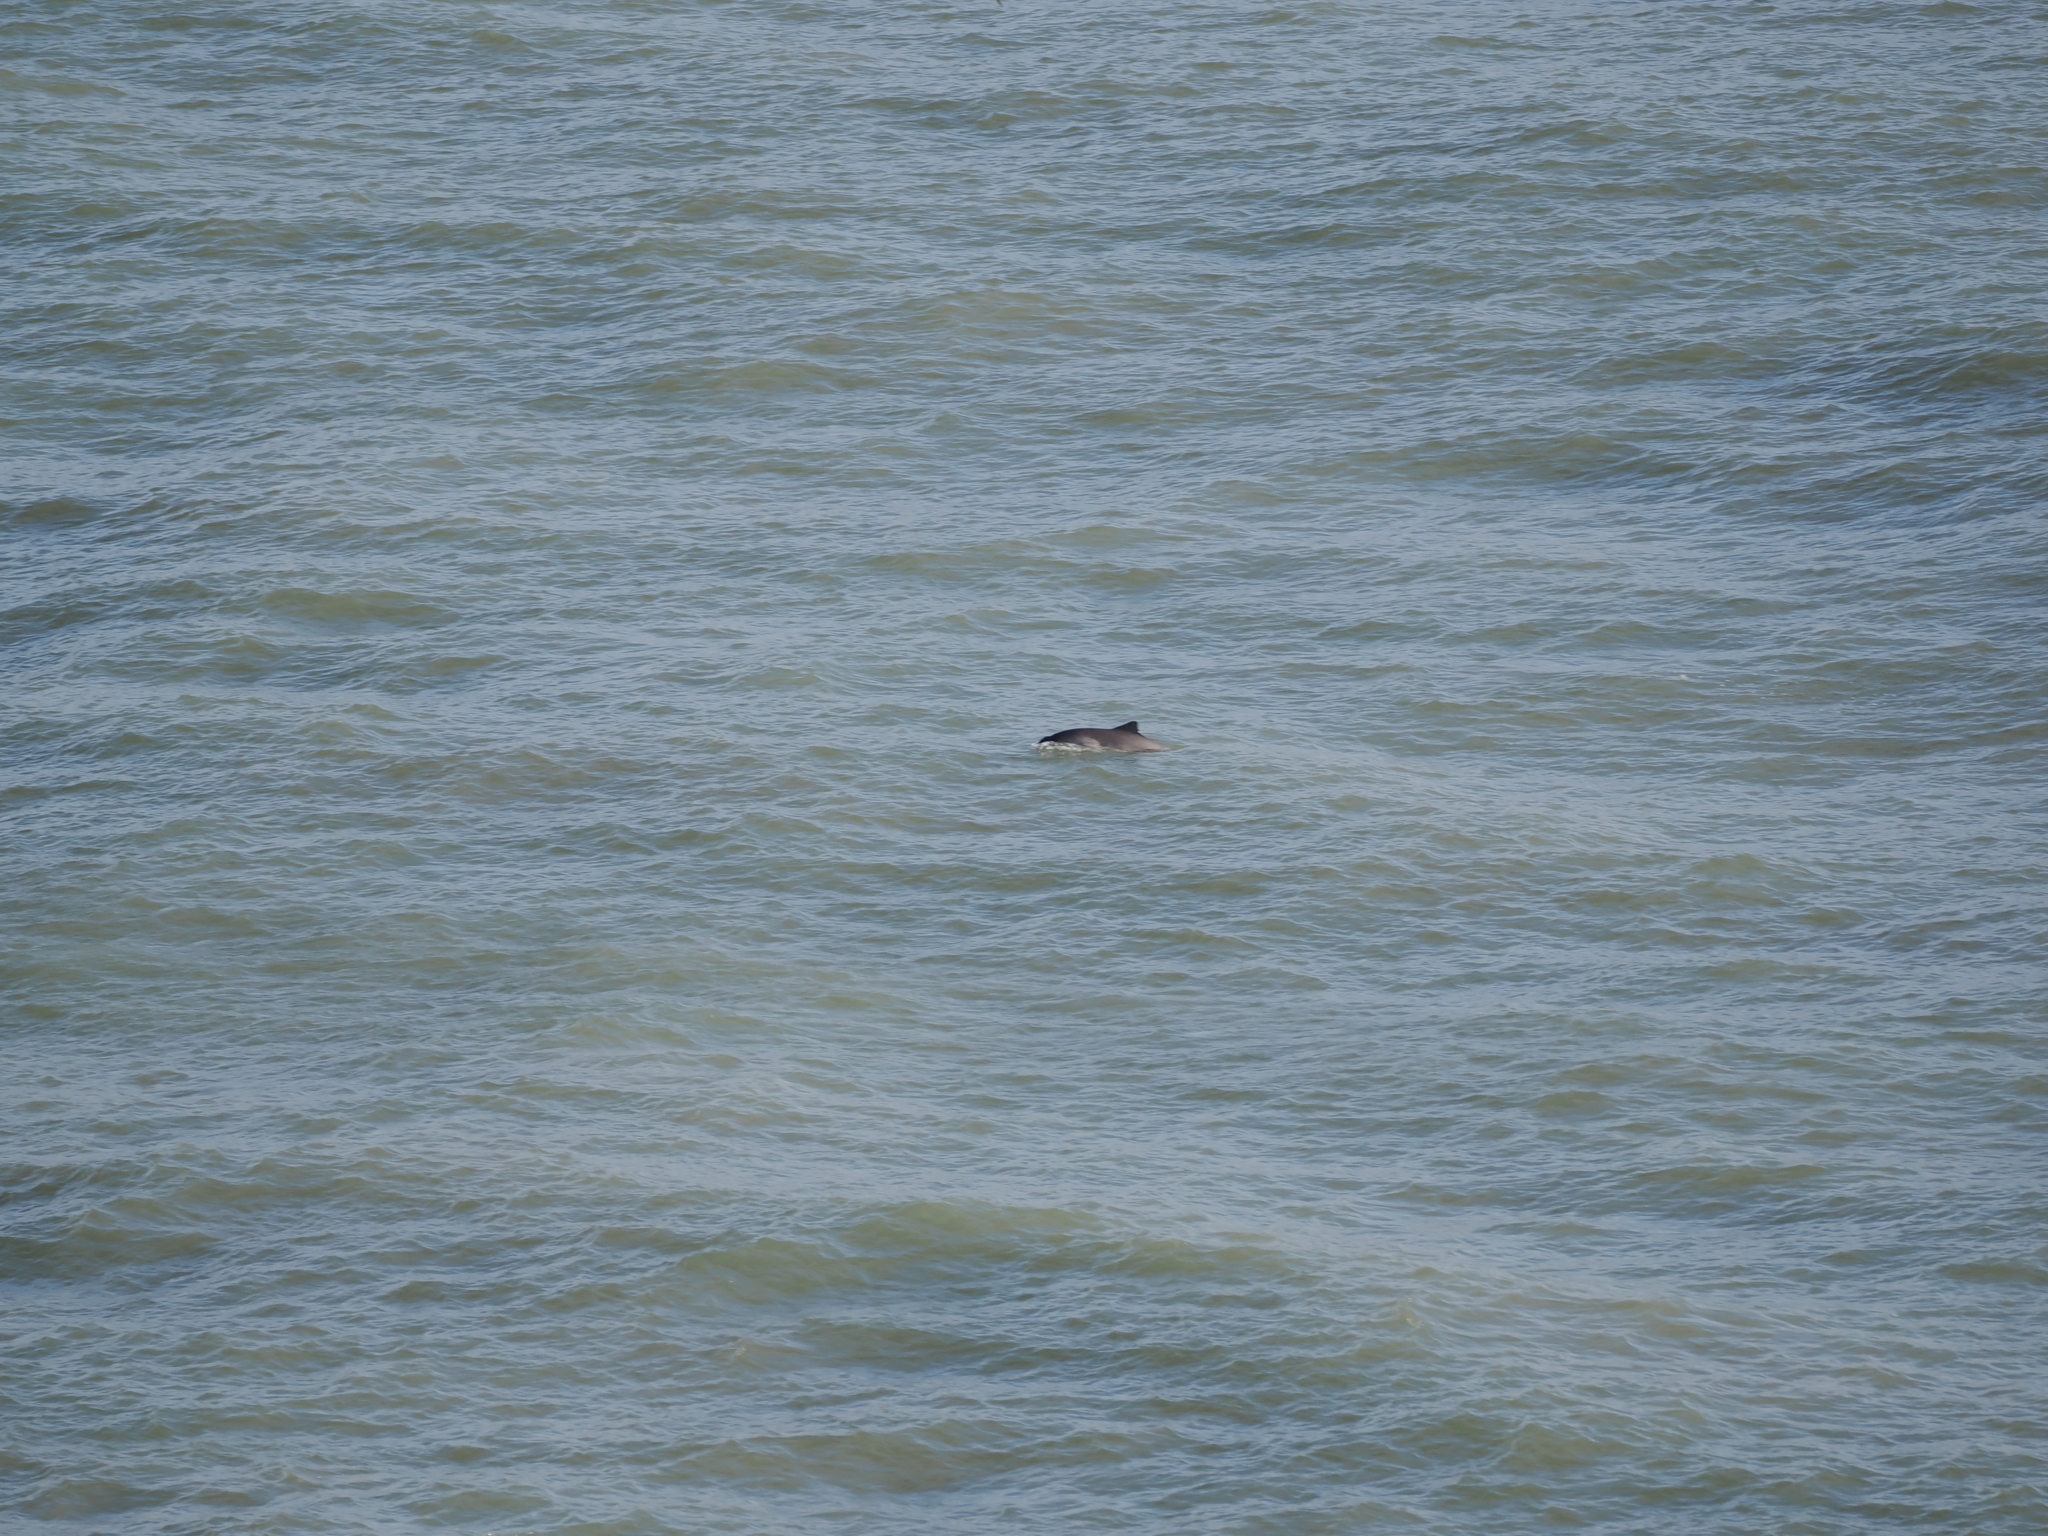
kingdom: Animalia
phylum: Chordata
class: Mammalia
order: Cetacea
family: Phocoenidae
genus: Phocoena
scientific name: Phocoena phocoena
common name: Harbor porpoise
